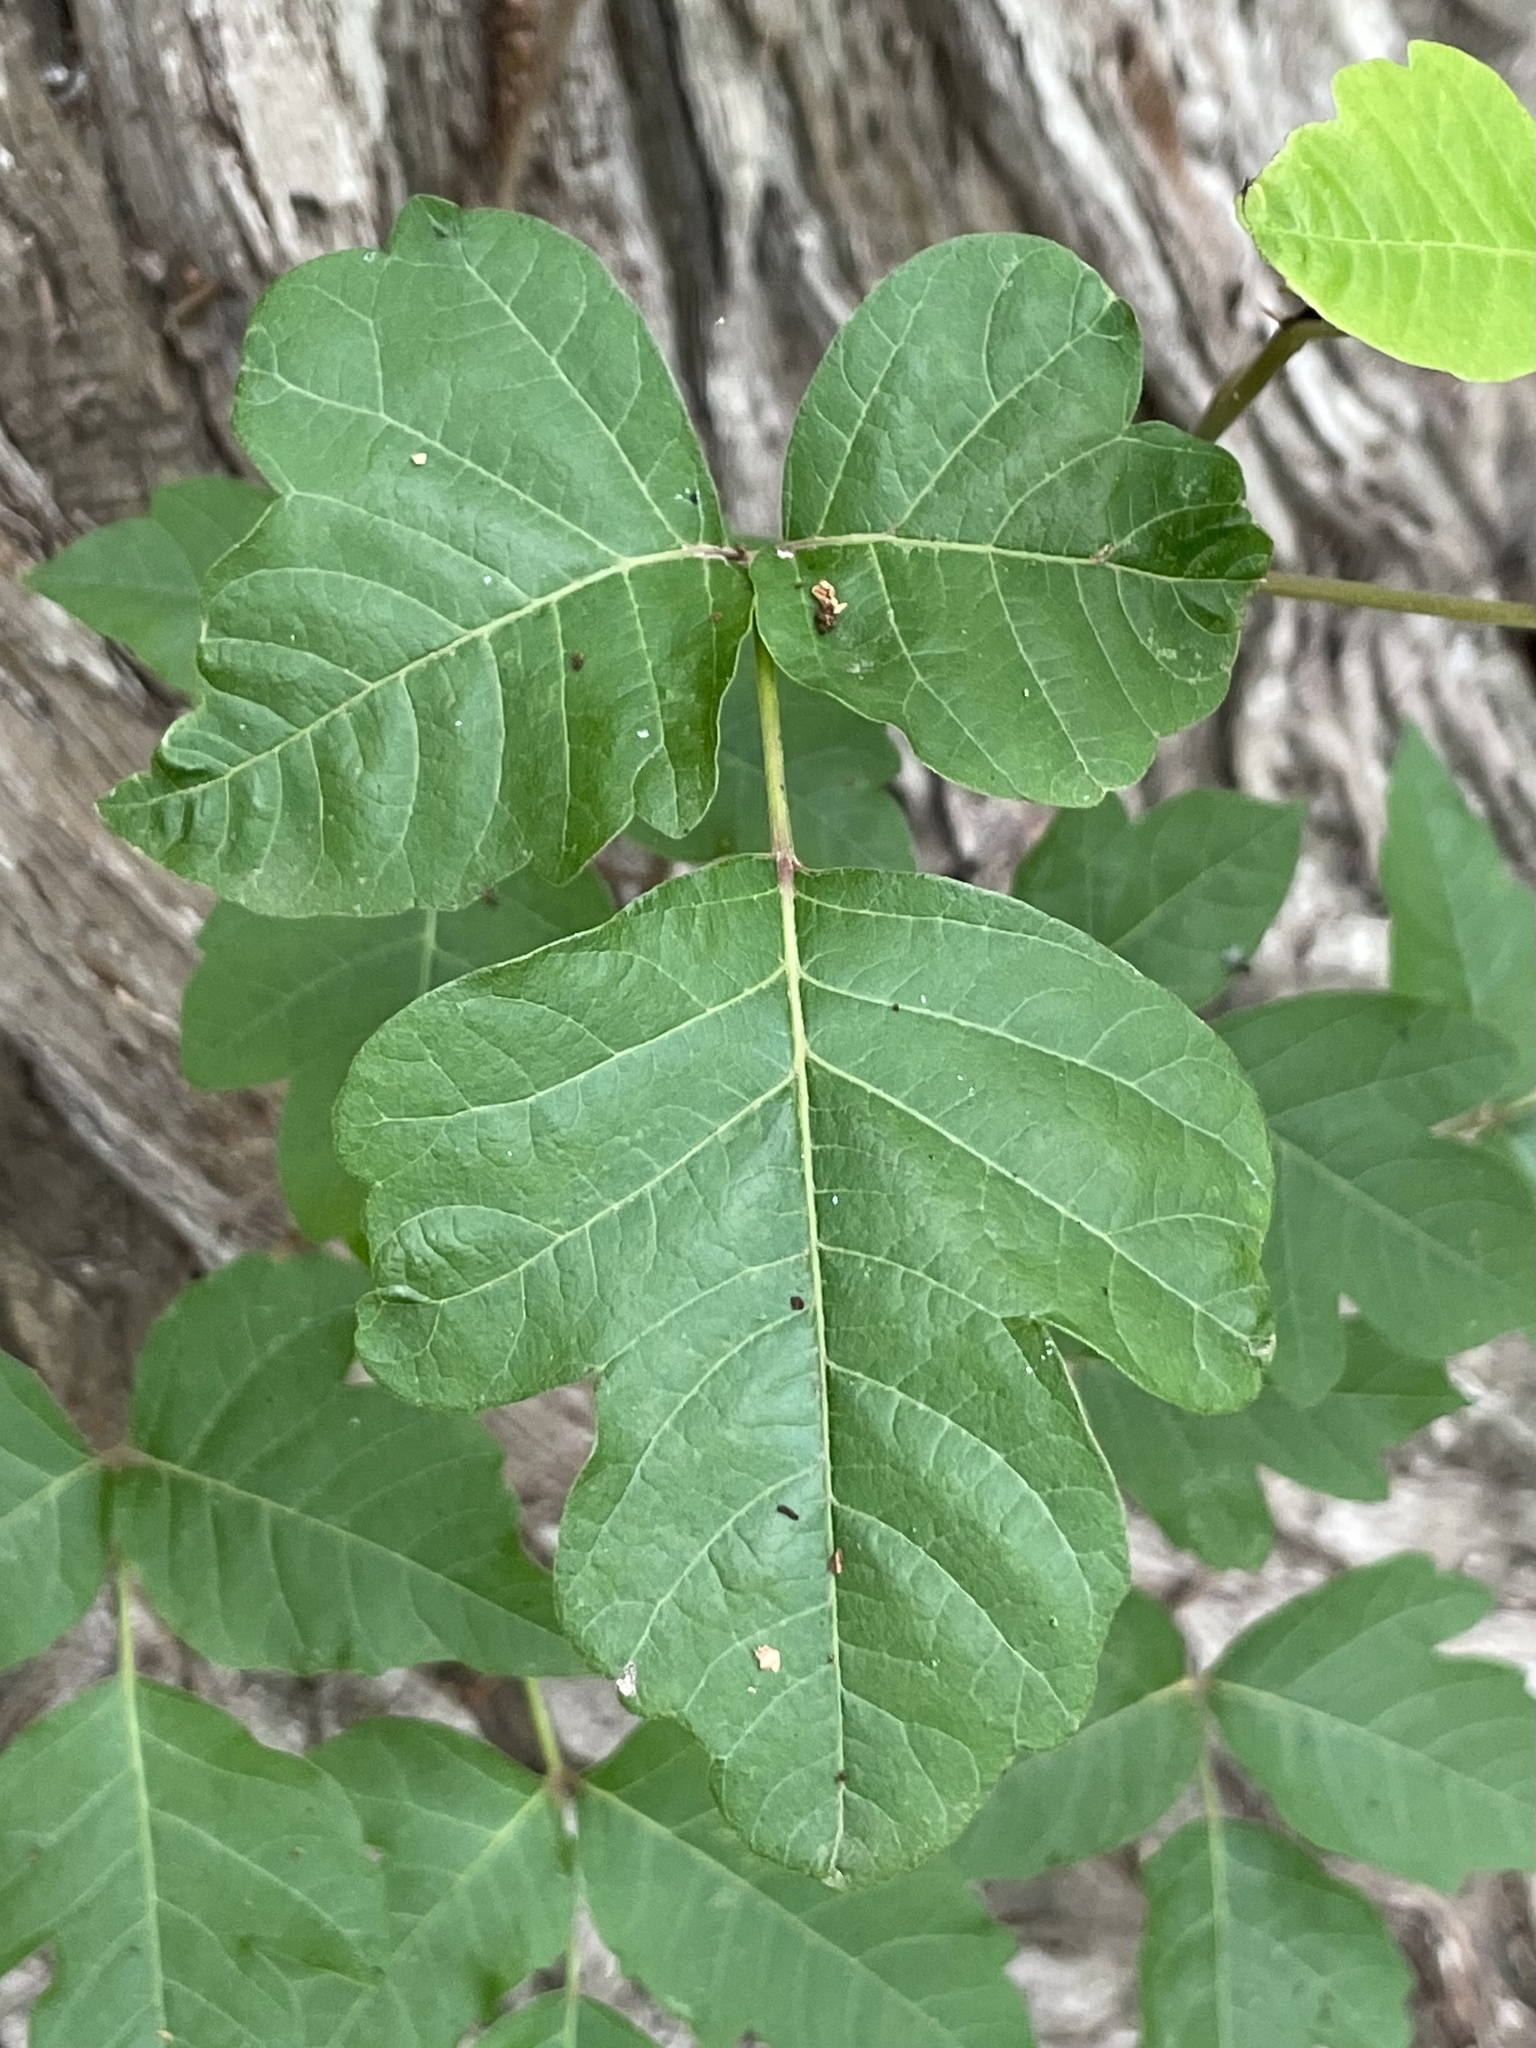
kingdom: Plantae
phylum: Tracheophyta
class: Magnoliopsida
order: Sapindales
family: Anacardiaceae
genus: Toxicodendron
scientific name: Toxicodendron radicans
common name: Poison ivy
